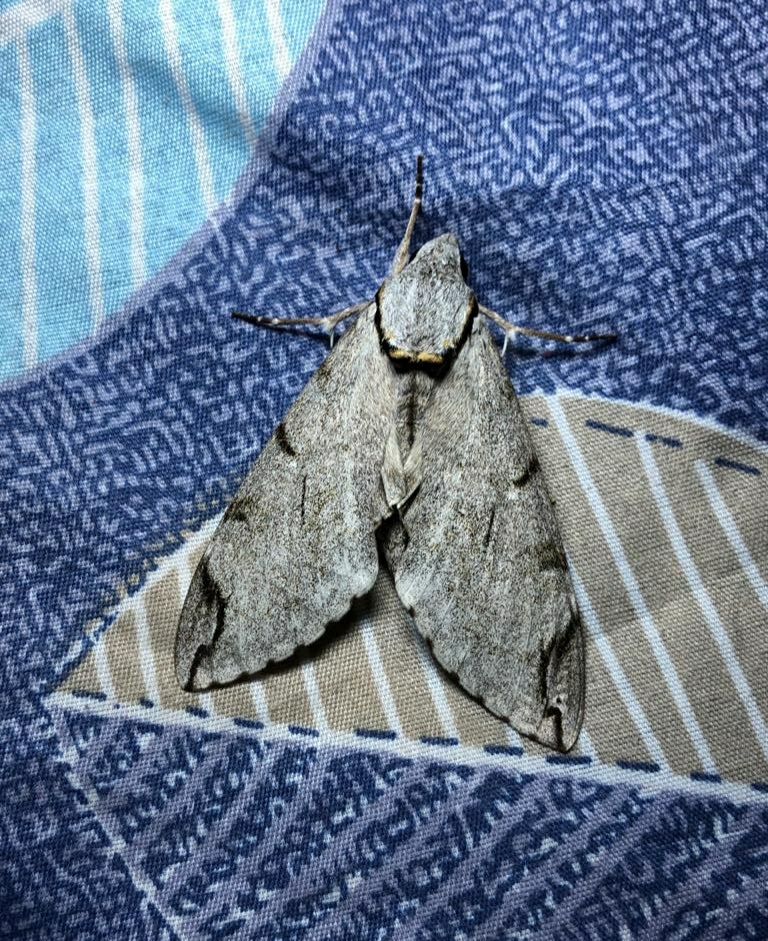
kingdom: Animalia
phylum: Arthropoda
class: Insecta
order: Lepidoptera
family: Sphingidae
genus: Psilogramma
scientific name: Psilogramma increta
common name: Gray hawk moth
